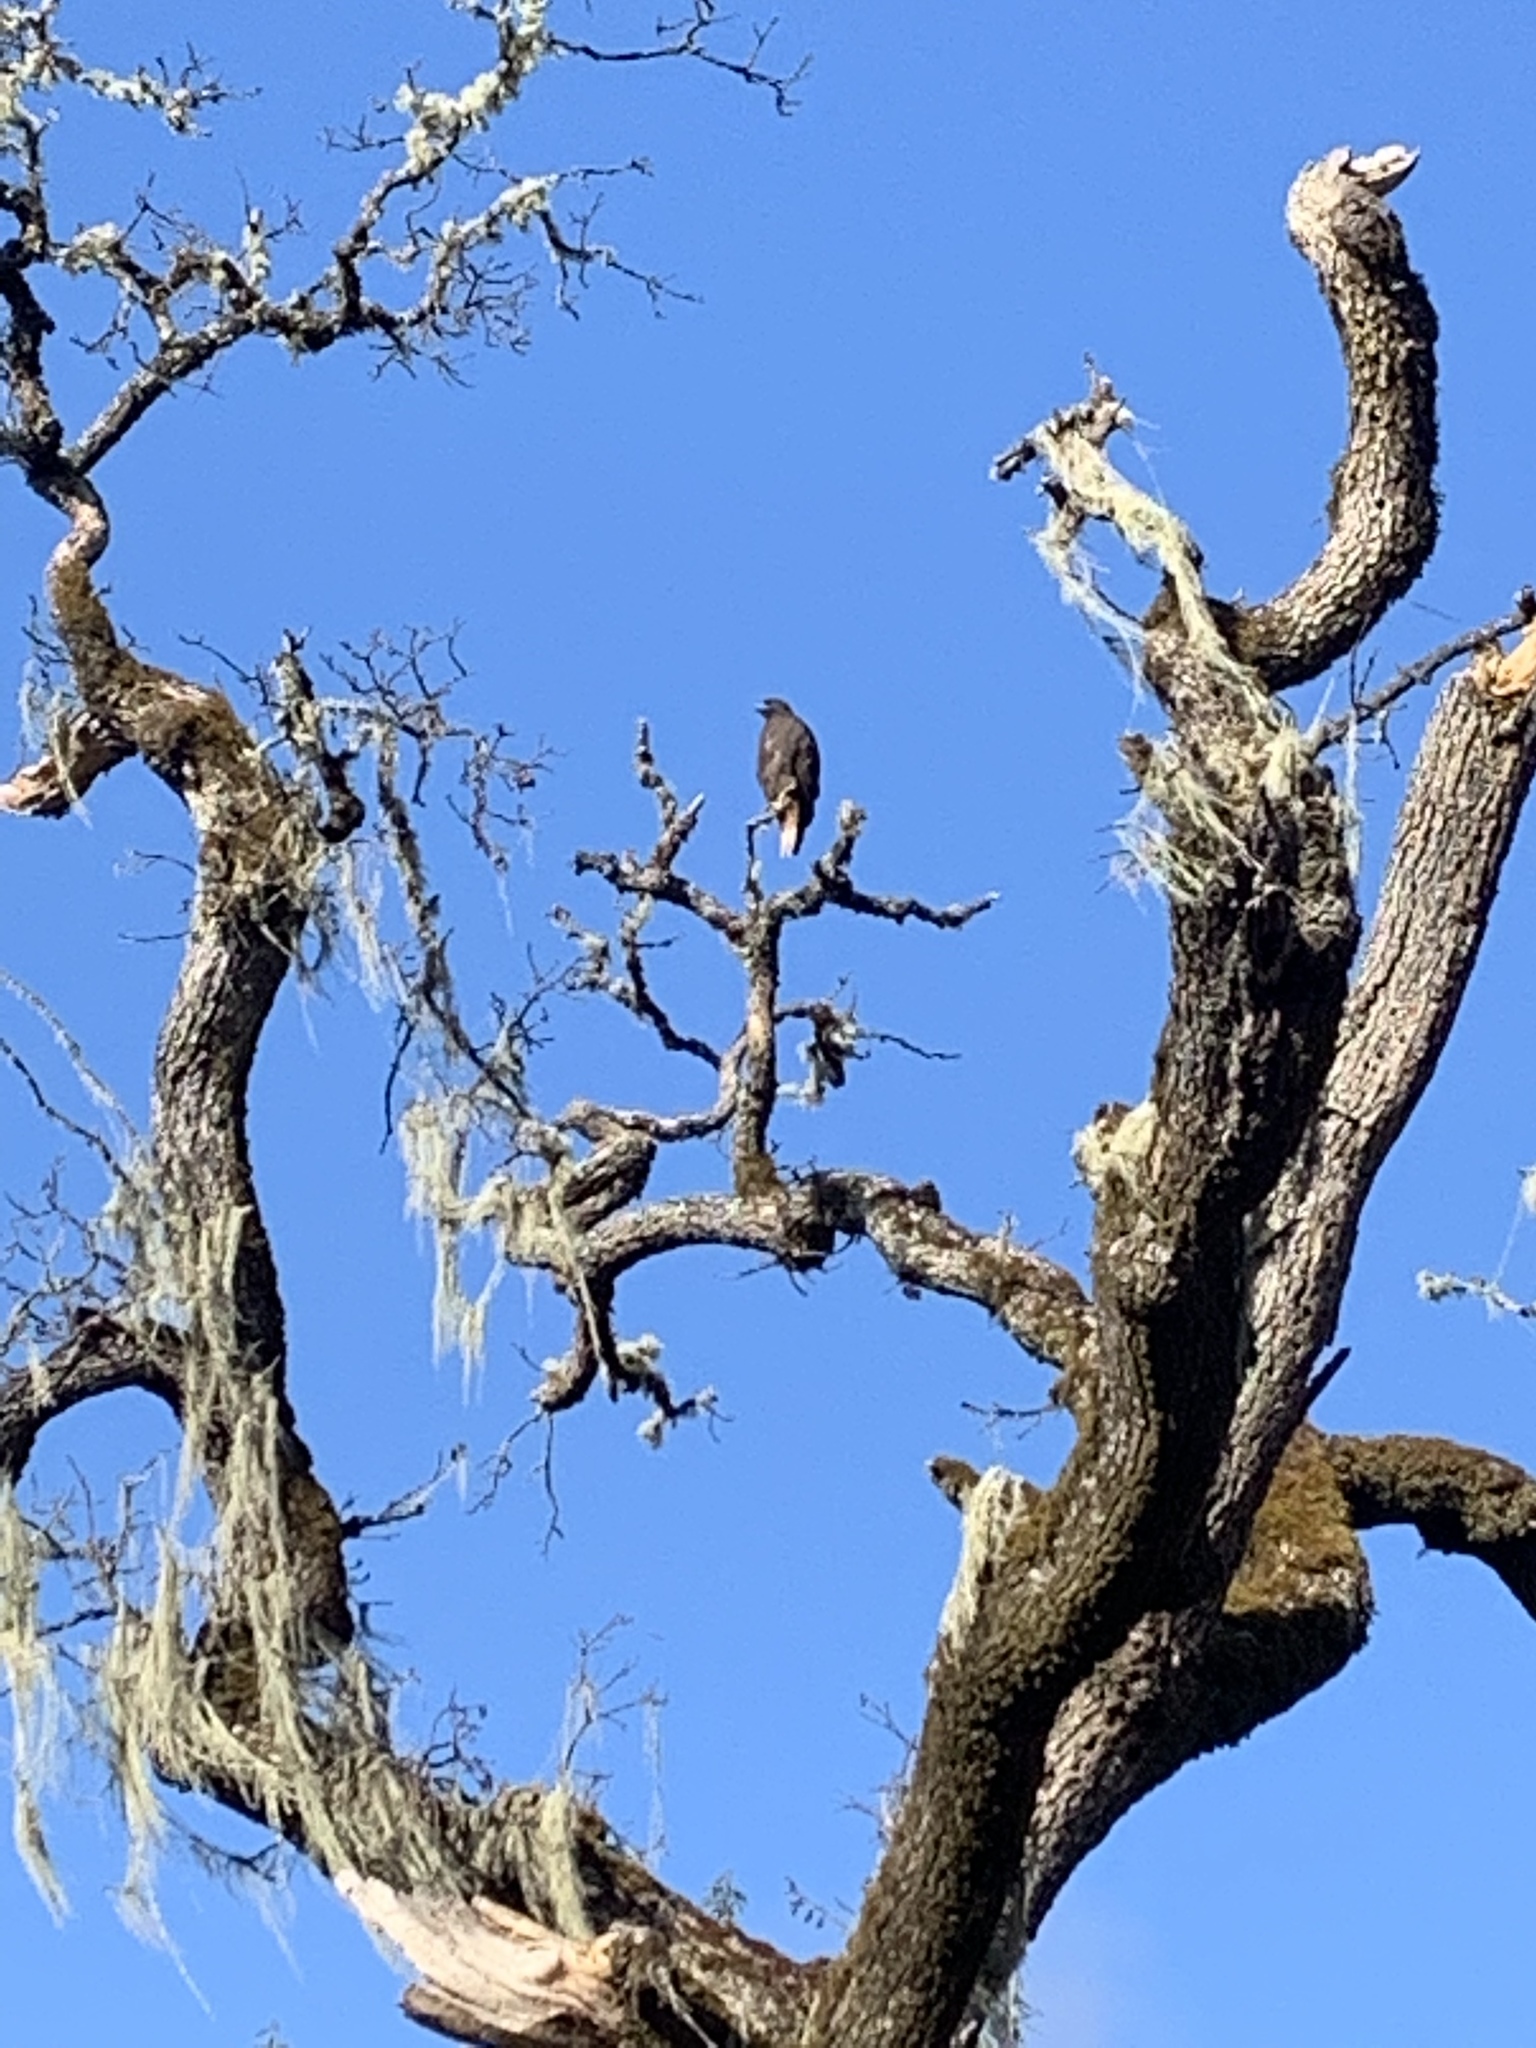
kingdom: Animalia
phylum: Chordata
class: Aves
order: Accipitriformes
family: Accipitridae
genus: Buteo
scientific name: Buteo jamaicensis
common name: Red-tailed hawk
